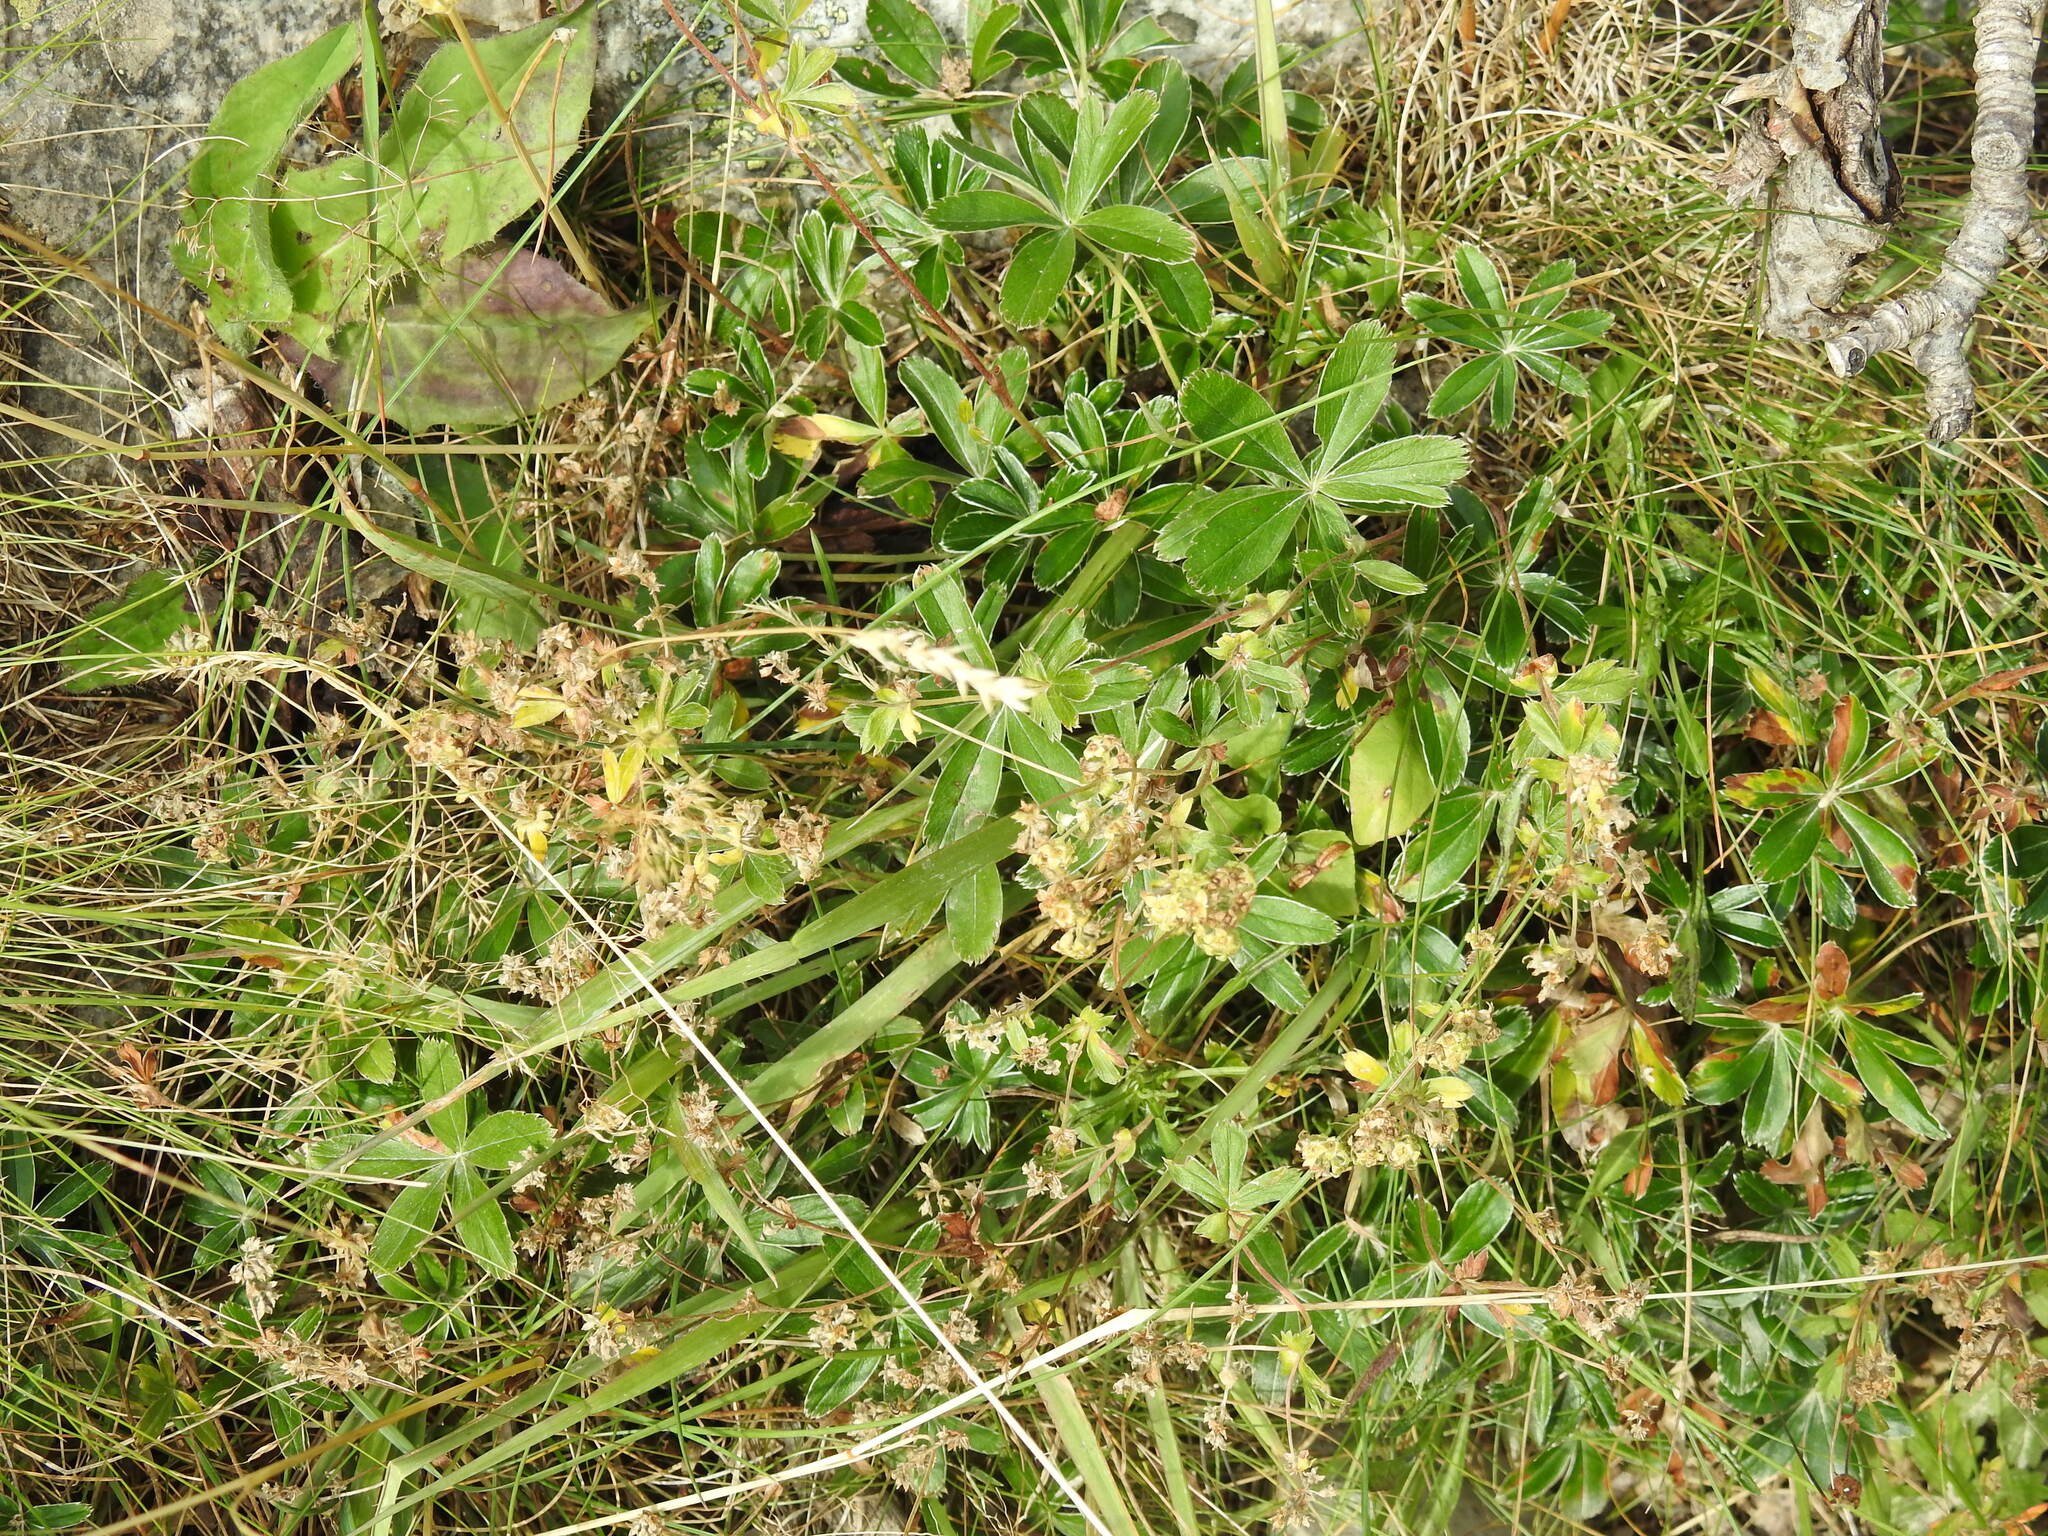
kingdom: Plantae
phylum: Tracheophyta
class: Magnoliopsida
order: Rosales
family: Rosaceae
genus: Alchemilla
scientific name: Alchemilla transiens
